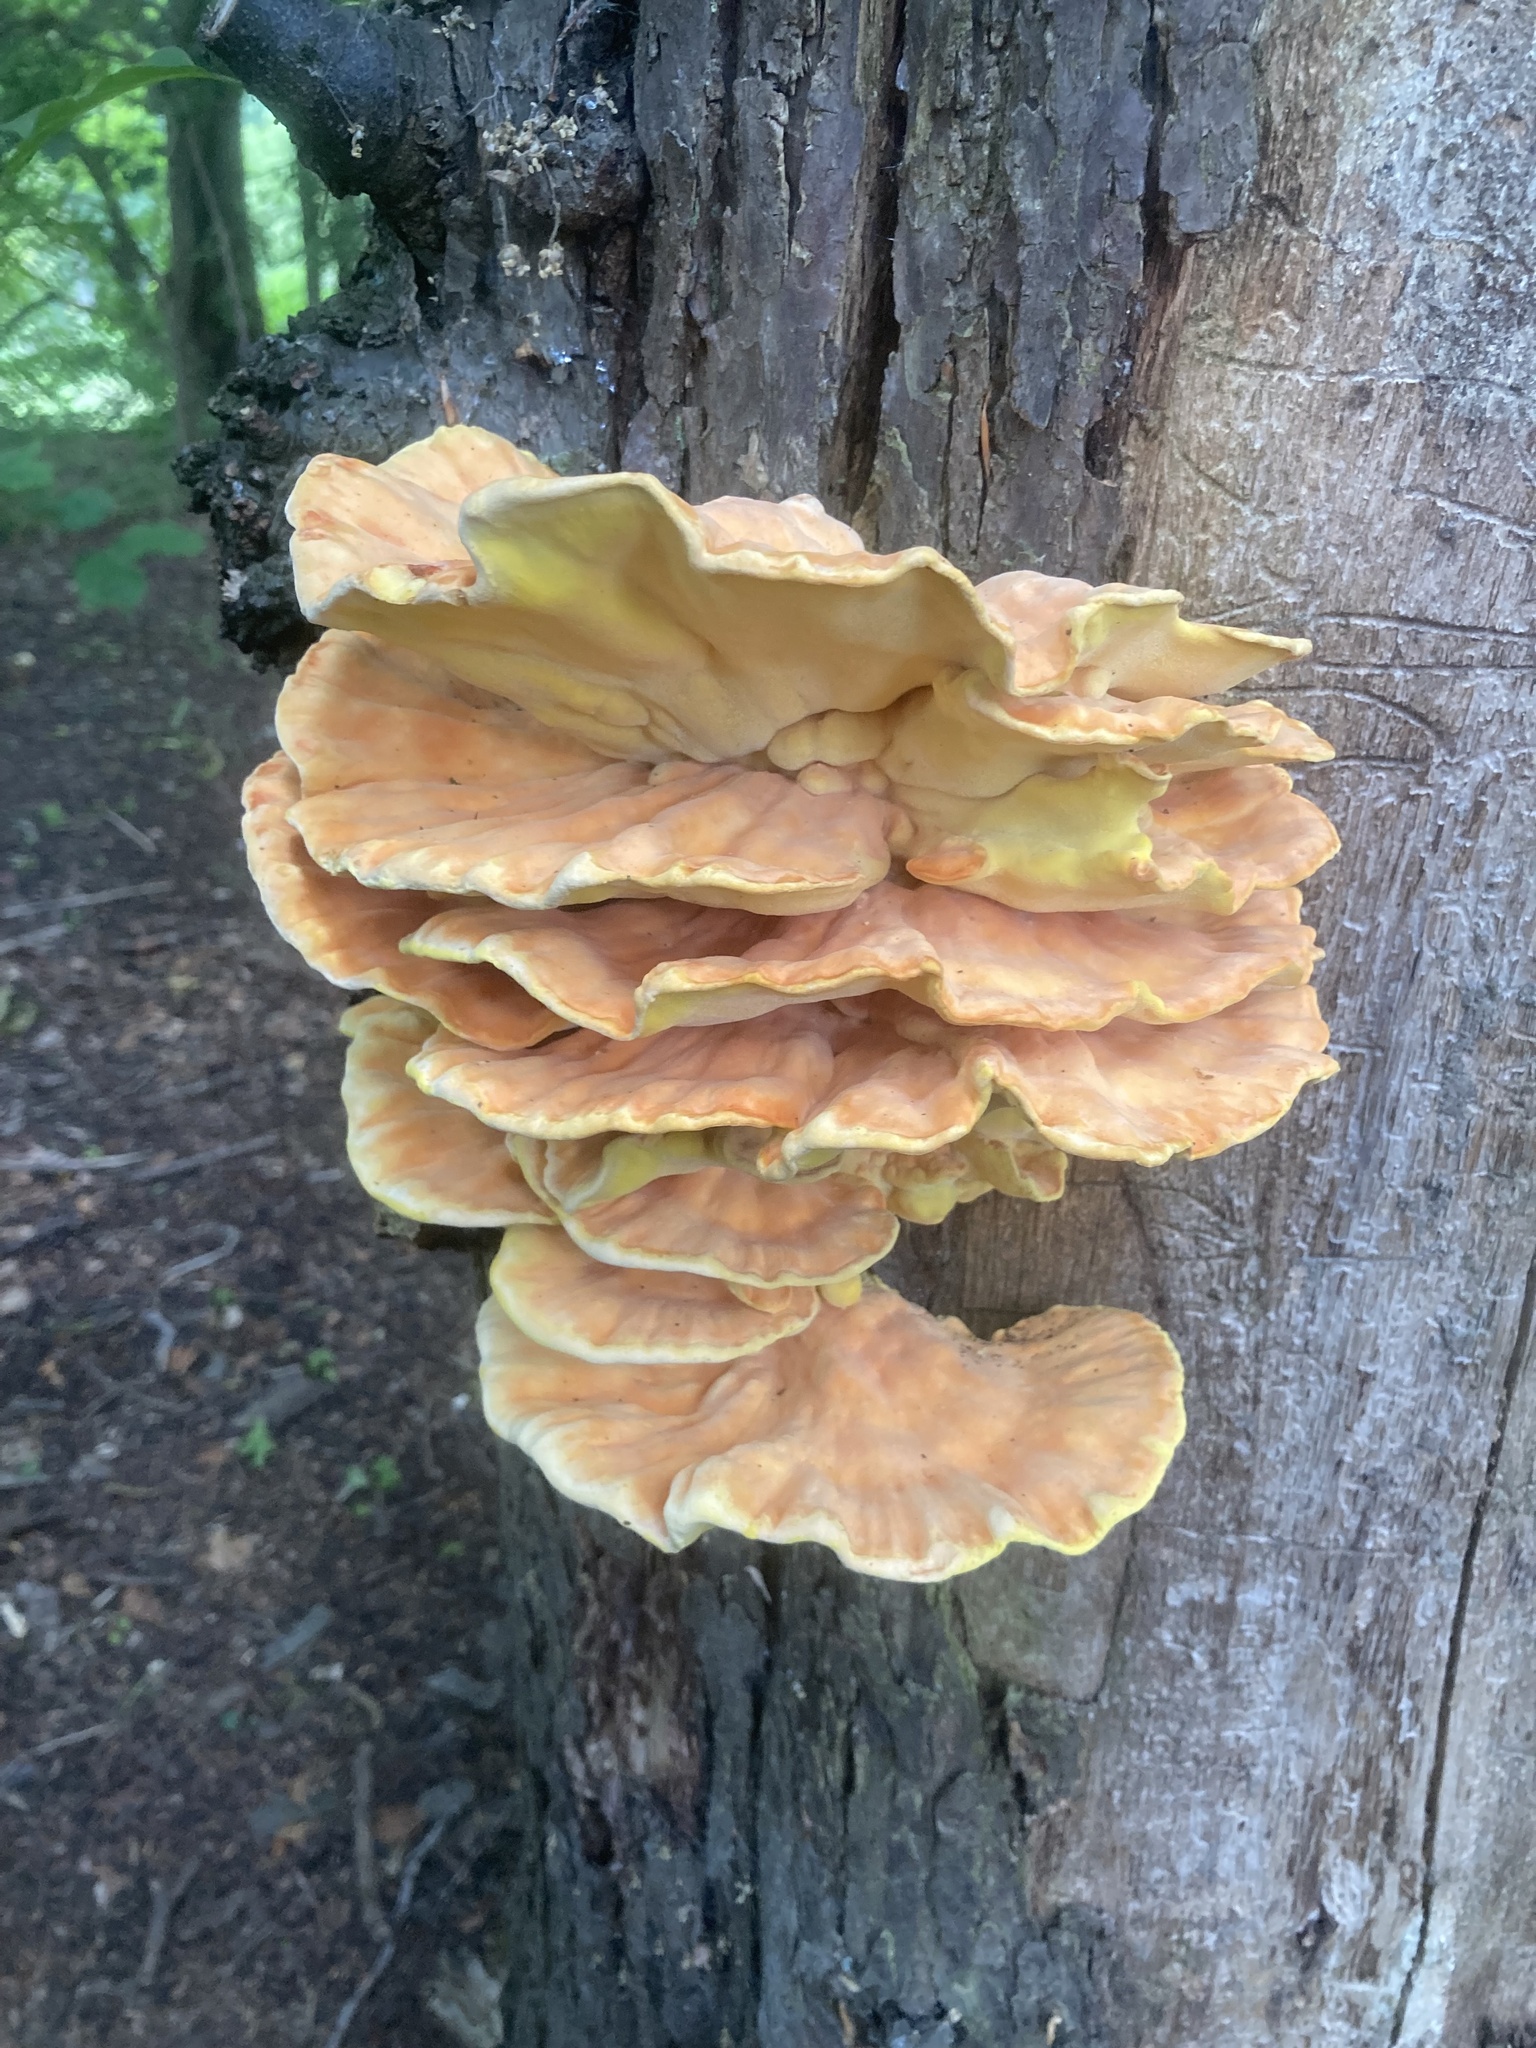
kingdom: Fungi
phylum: Basidiomycota
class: Agaricomycetes
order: Polyporales
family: Laetiporaceae
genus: Laetiporus
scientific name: Laetiporus sulphureus
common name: Chicken of the woods
